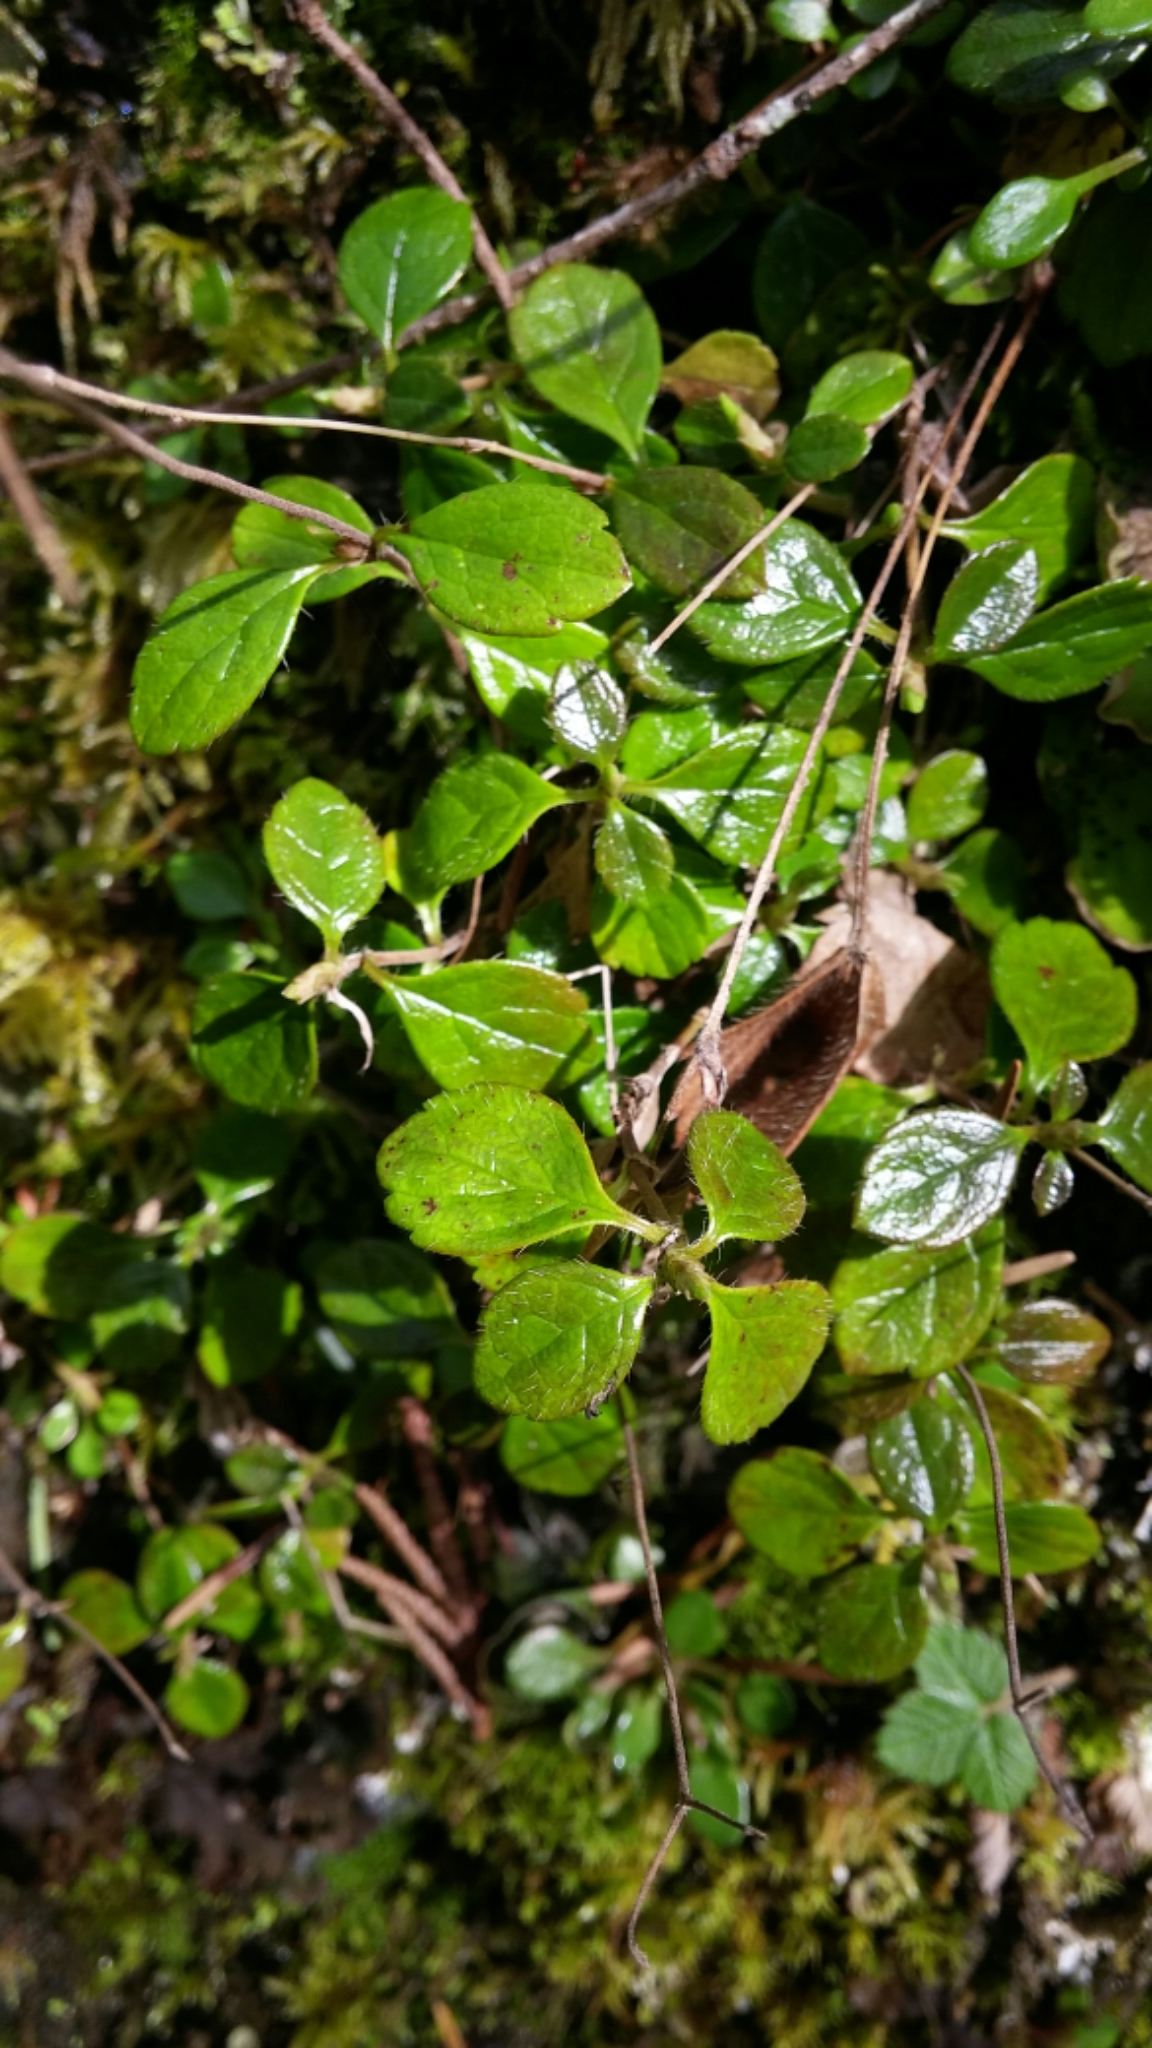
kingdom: Plantae
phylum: Tracheophyta
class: Magnoliopsida
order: Dipsacales
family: Caprifoliaceae
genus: Linnaea
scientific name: Linnaea borealis
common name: Twinflower
